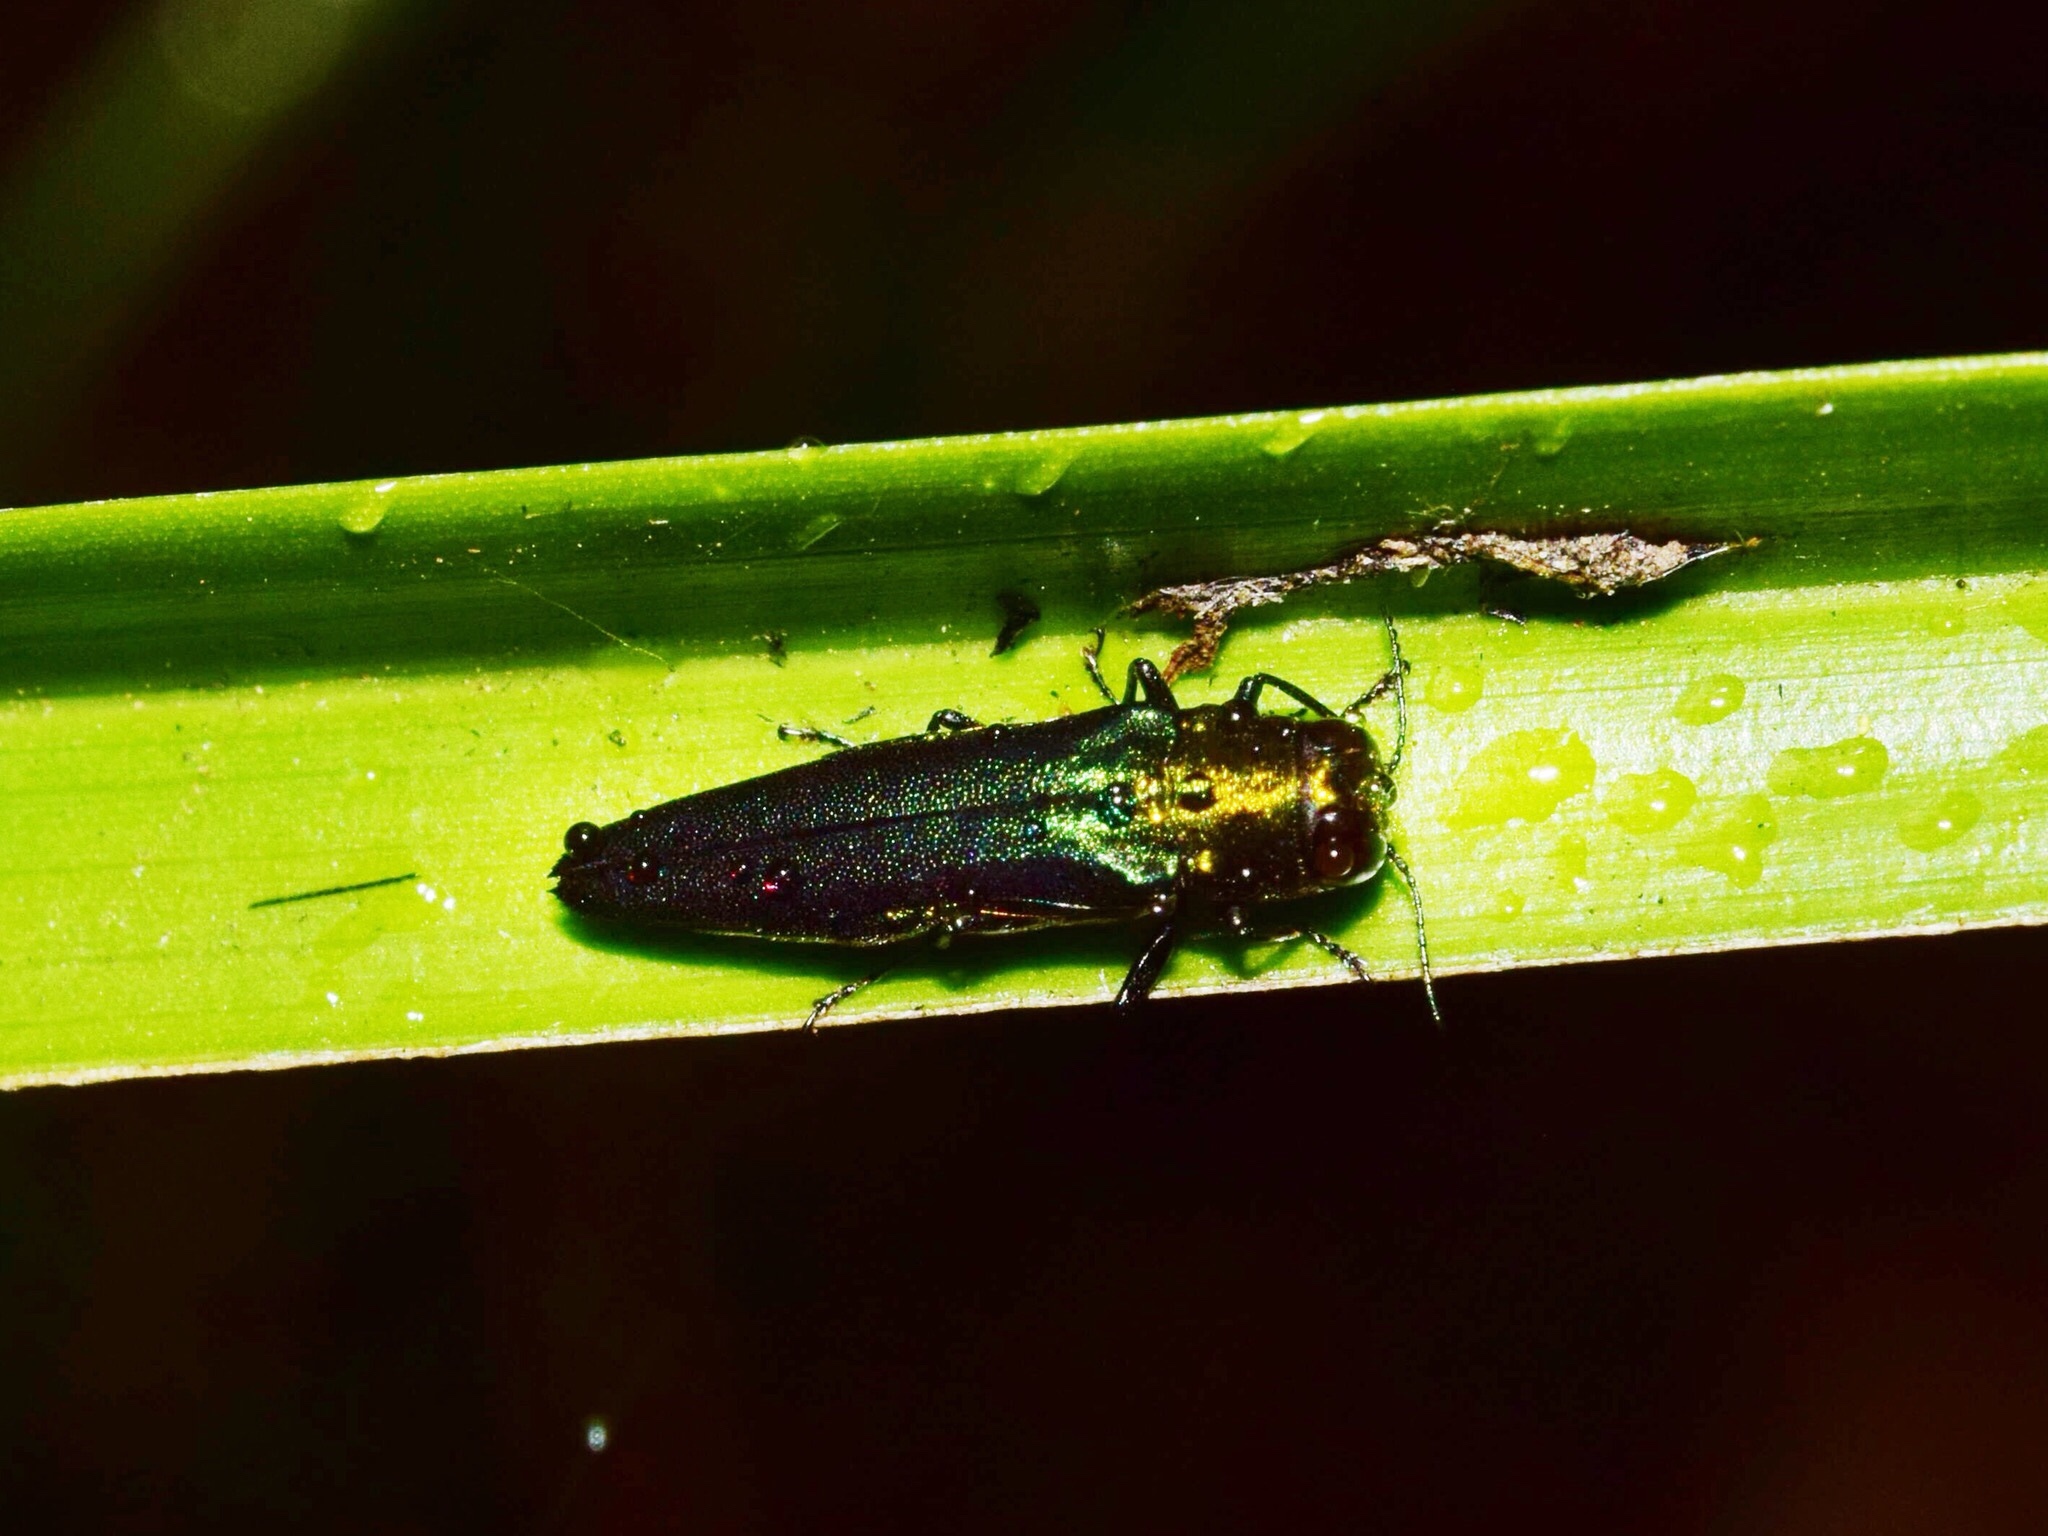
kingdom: Animalia
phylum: Arthropoda
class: Insecta
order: Coleoptera
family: Buprestidae
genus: Agrilus
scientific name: Agrilus hastulatus
